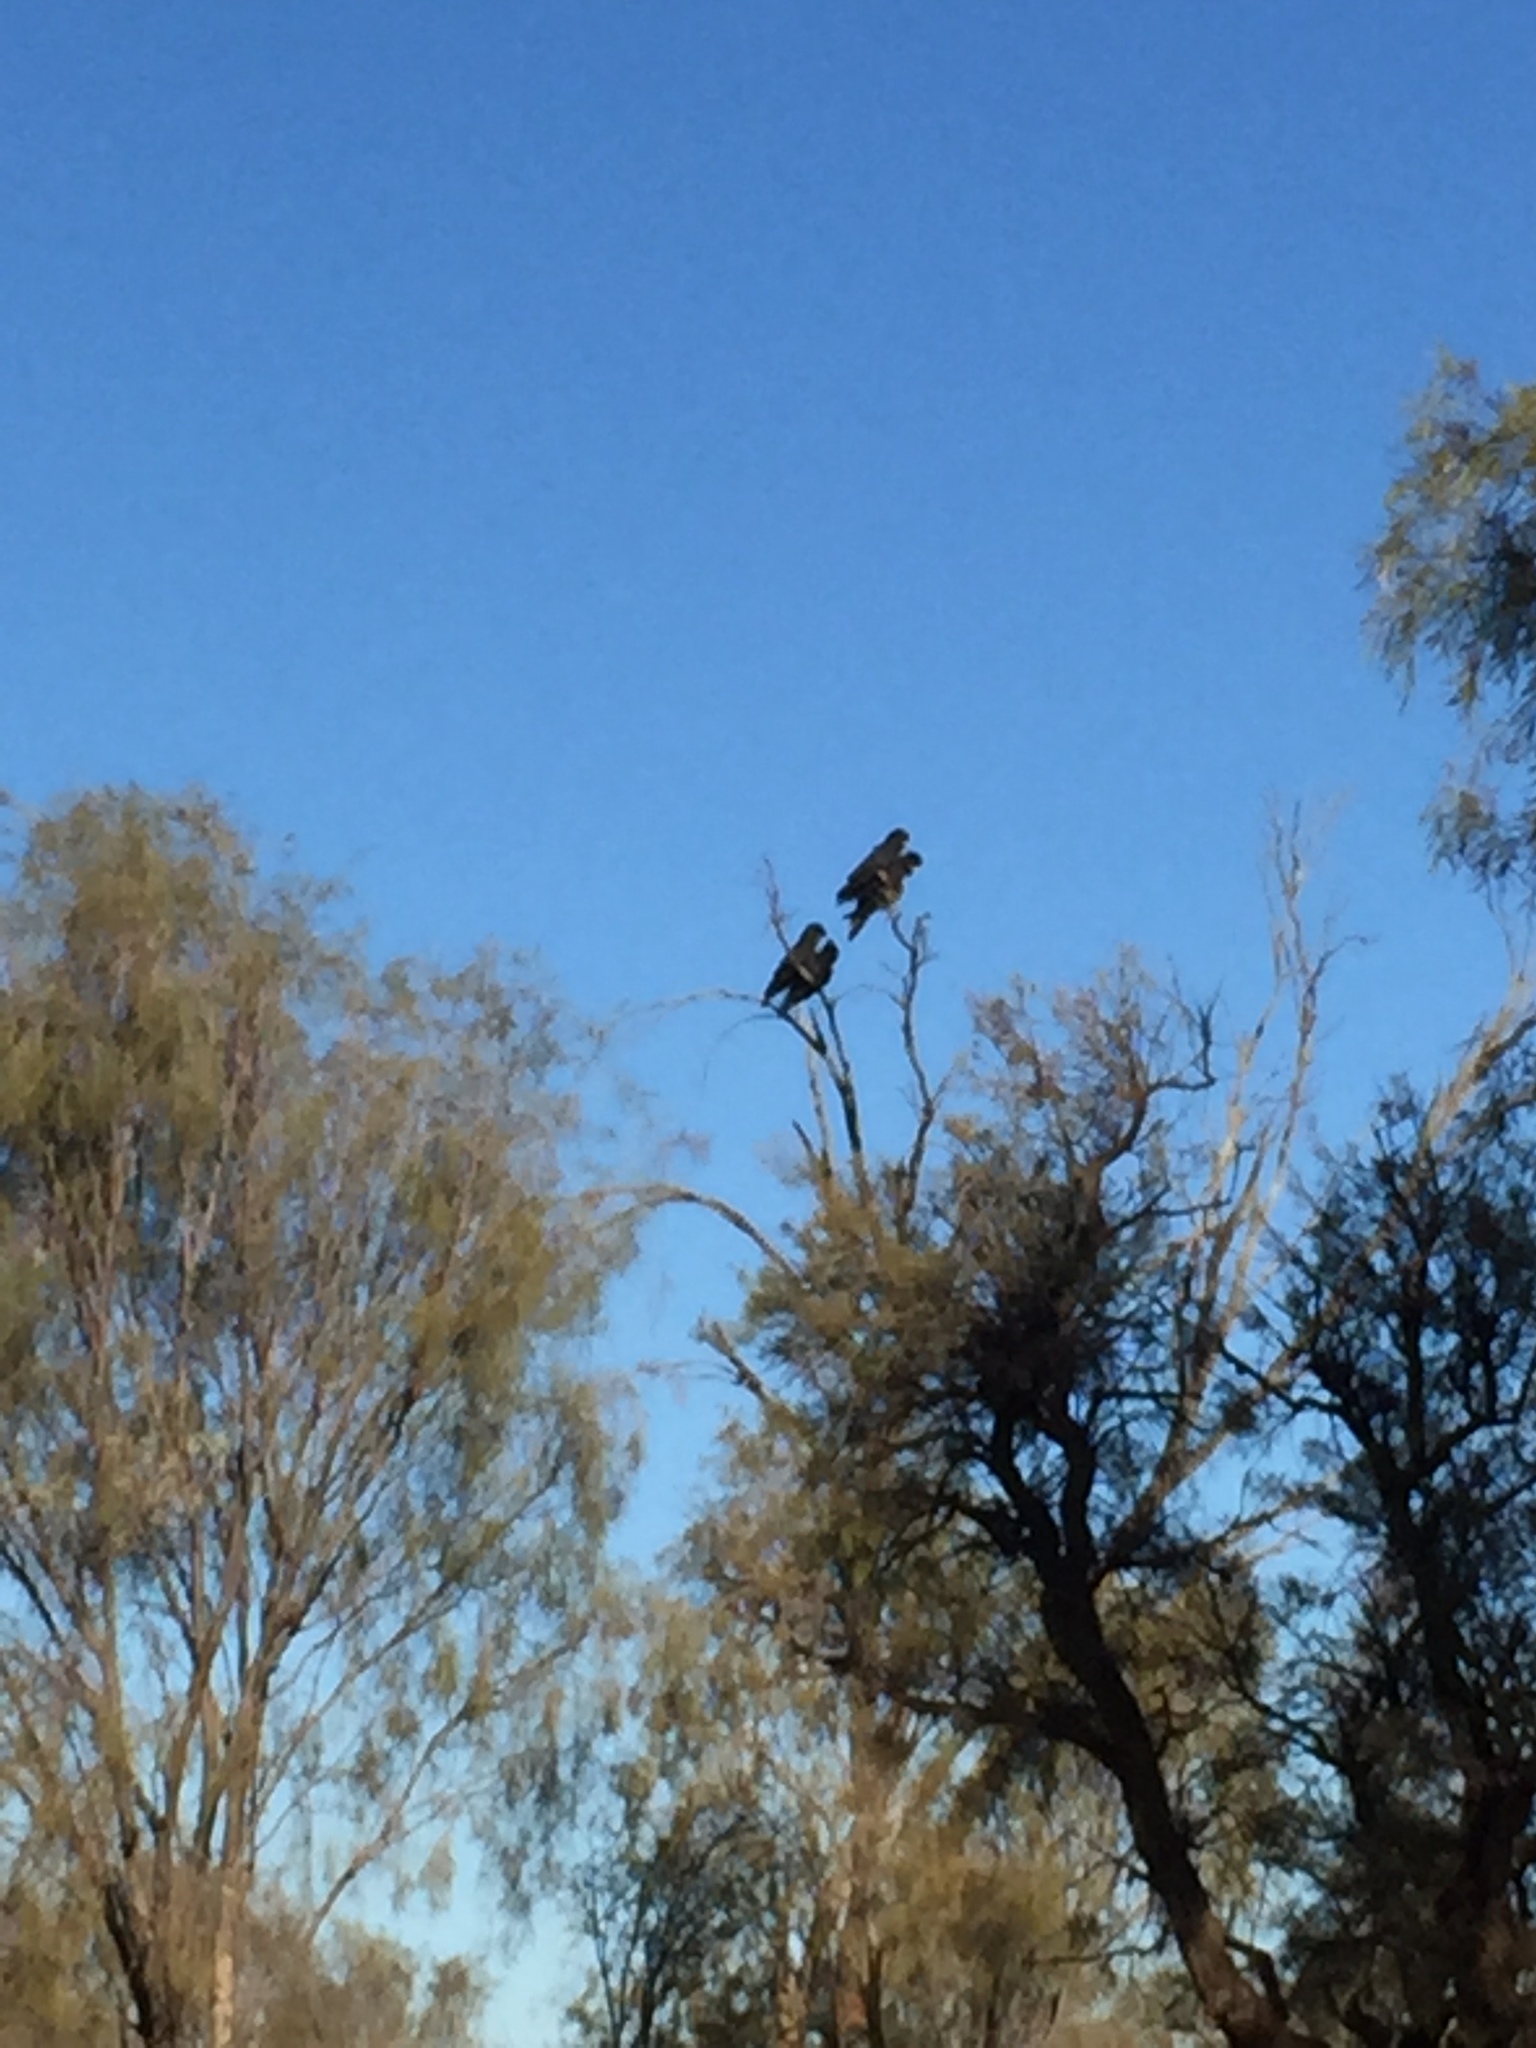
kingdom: Animalia
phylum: Chordata
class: Aves
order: Psittaciformes
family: Psittacidae
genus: Calyptorhynchus
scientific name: Calyptorhynchus banksii
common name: Red-tailed black cockatoo
